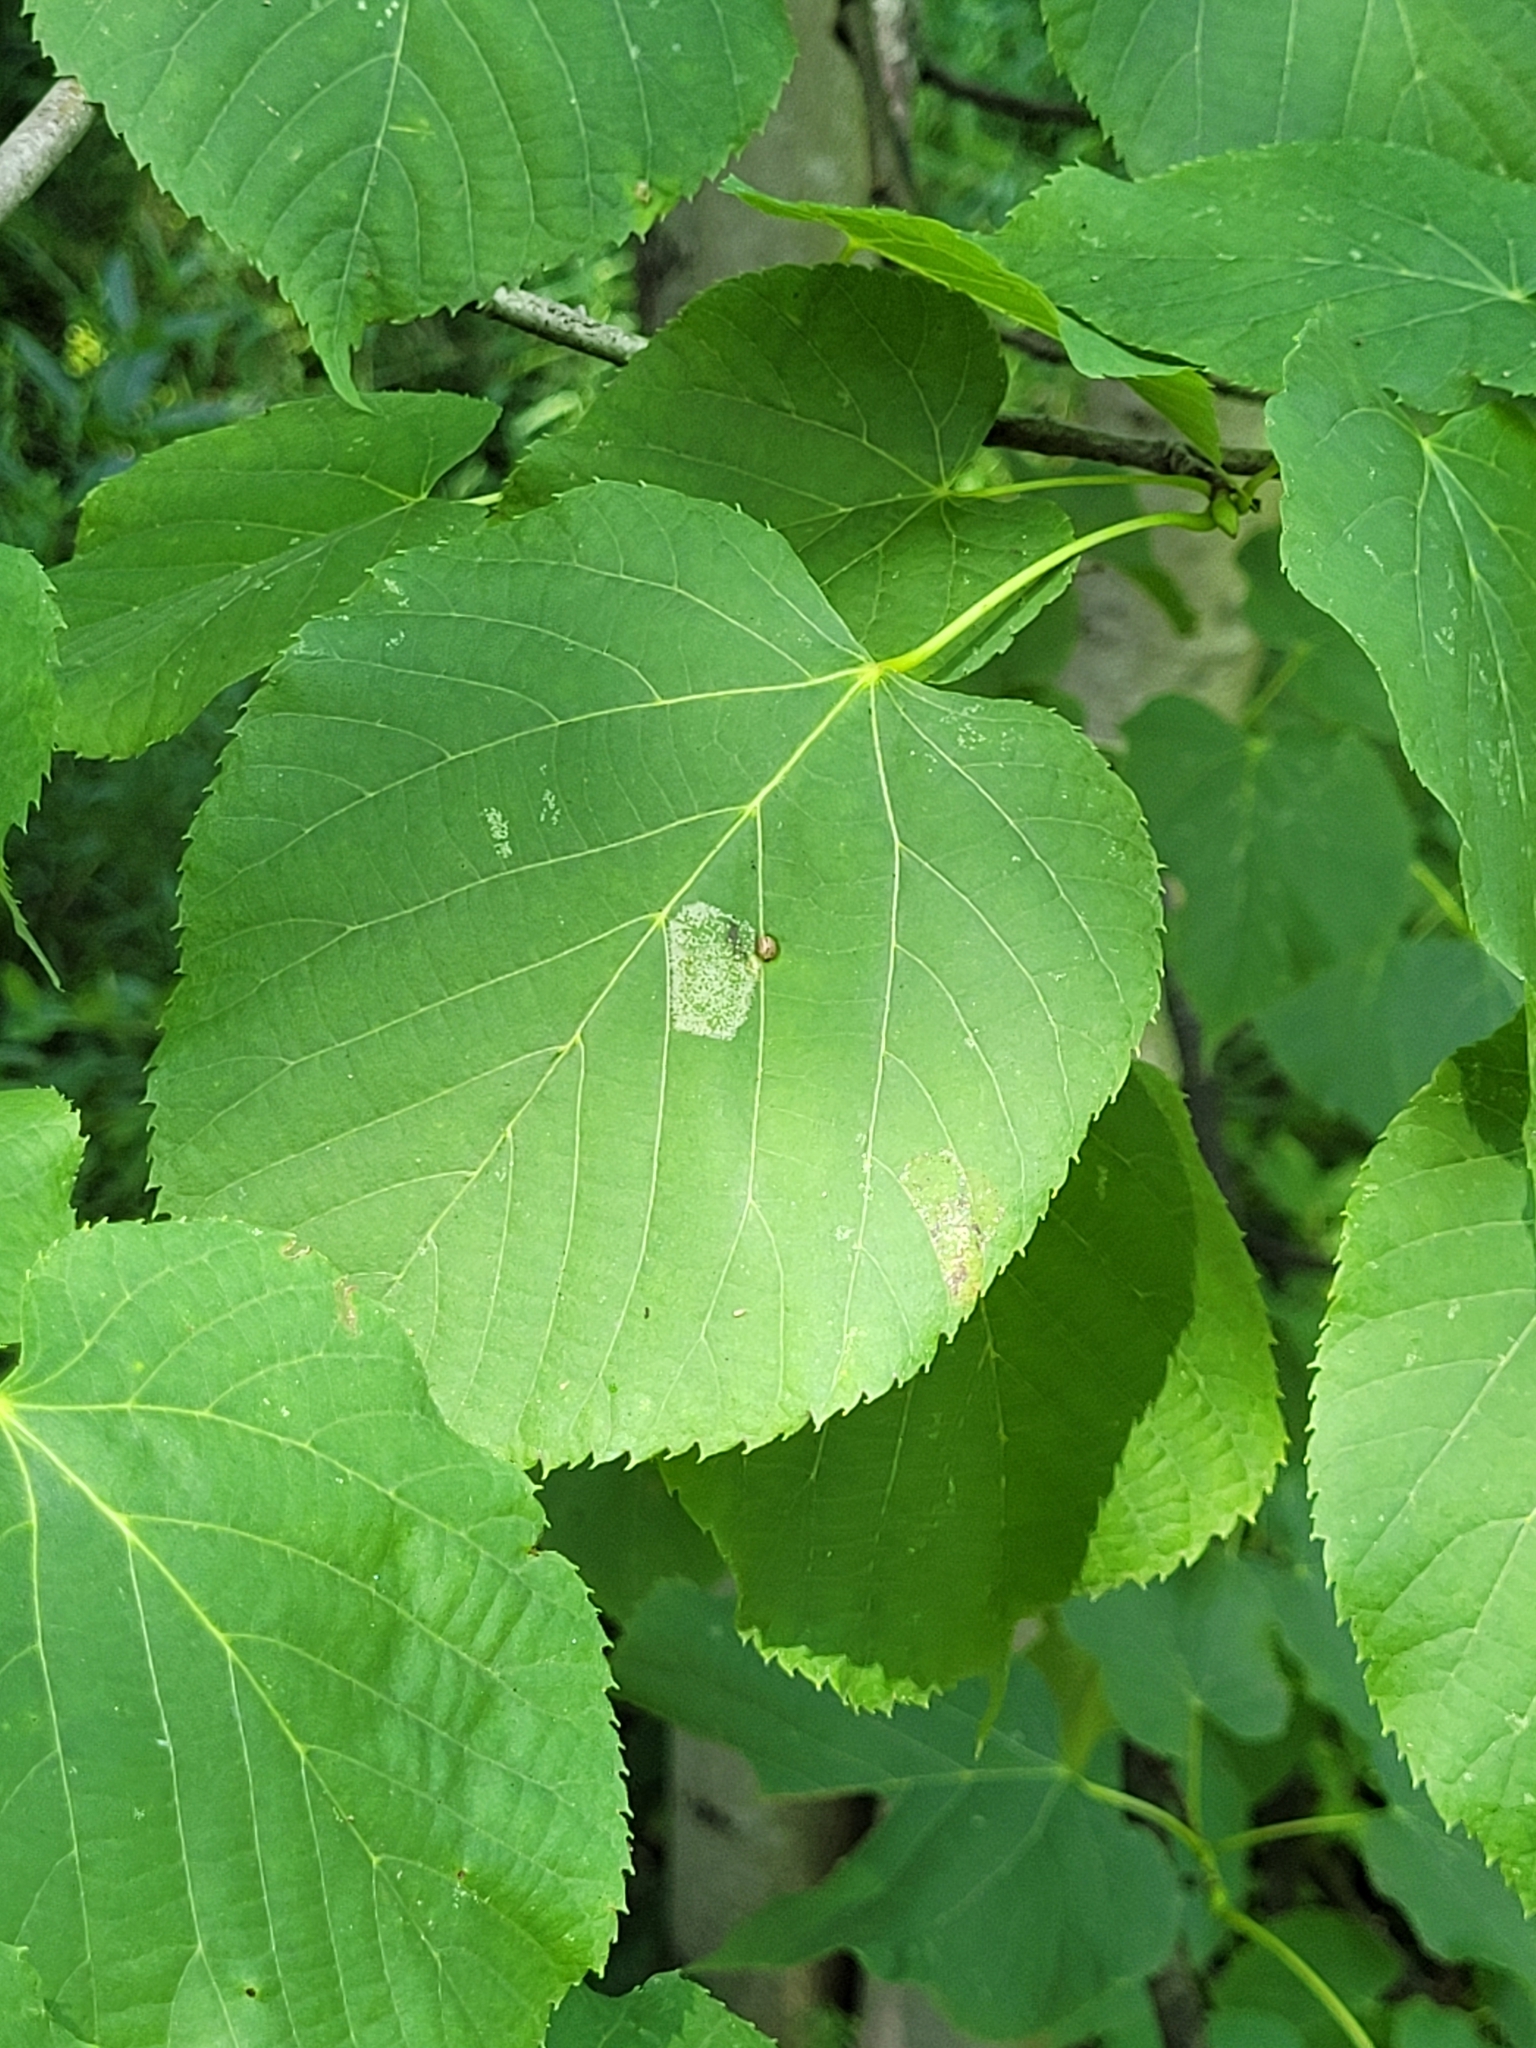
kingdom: Animalia
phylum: Arthropoda
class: Insecta
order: Lepidoptera
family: Gracillariidae
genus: Phyllonorycter
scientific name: Phyllonorycter lucetiella
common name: Basswood miner moth
